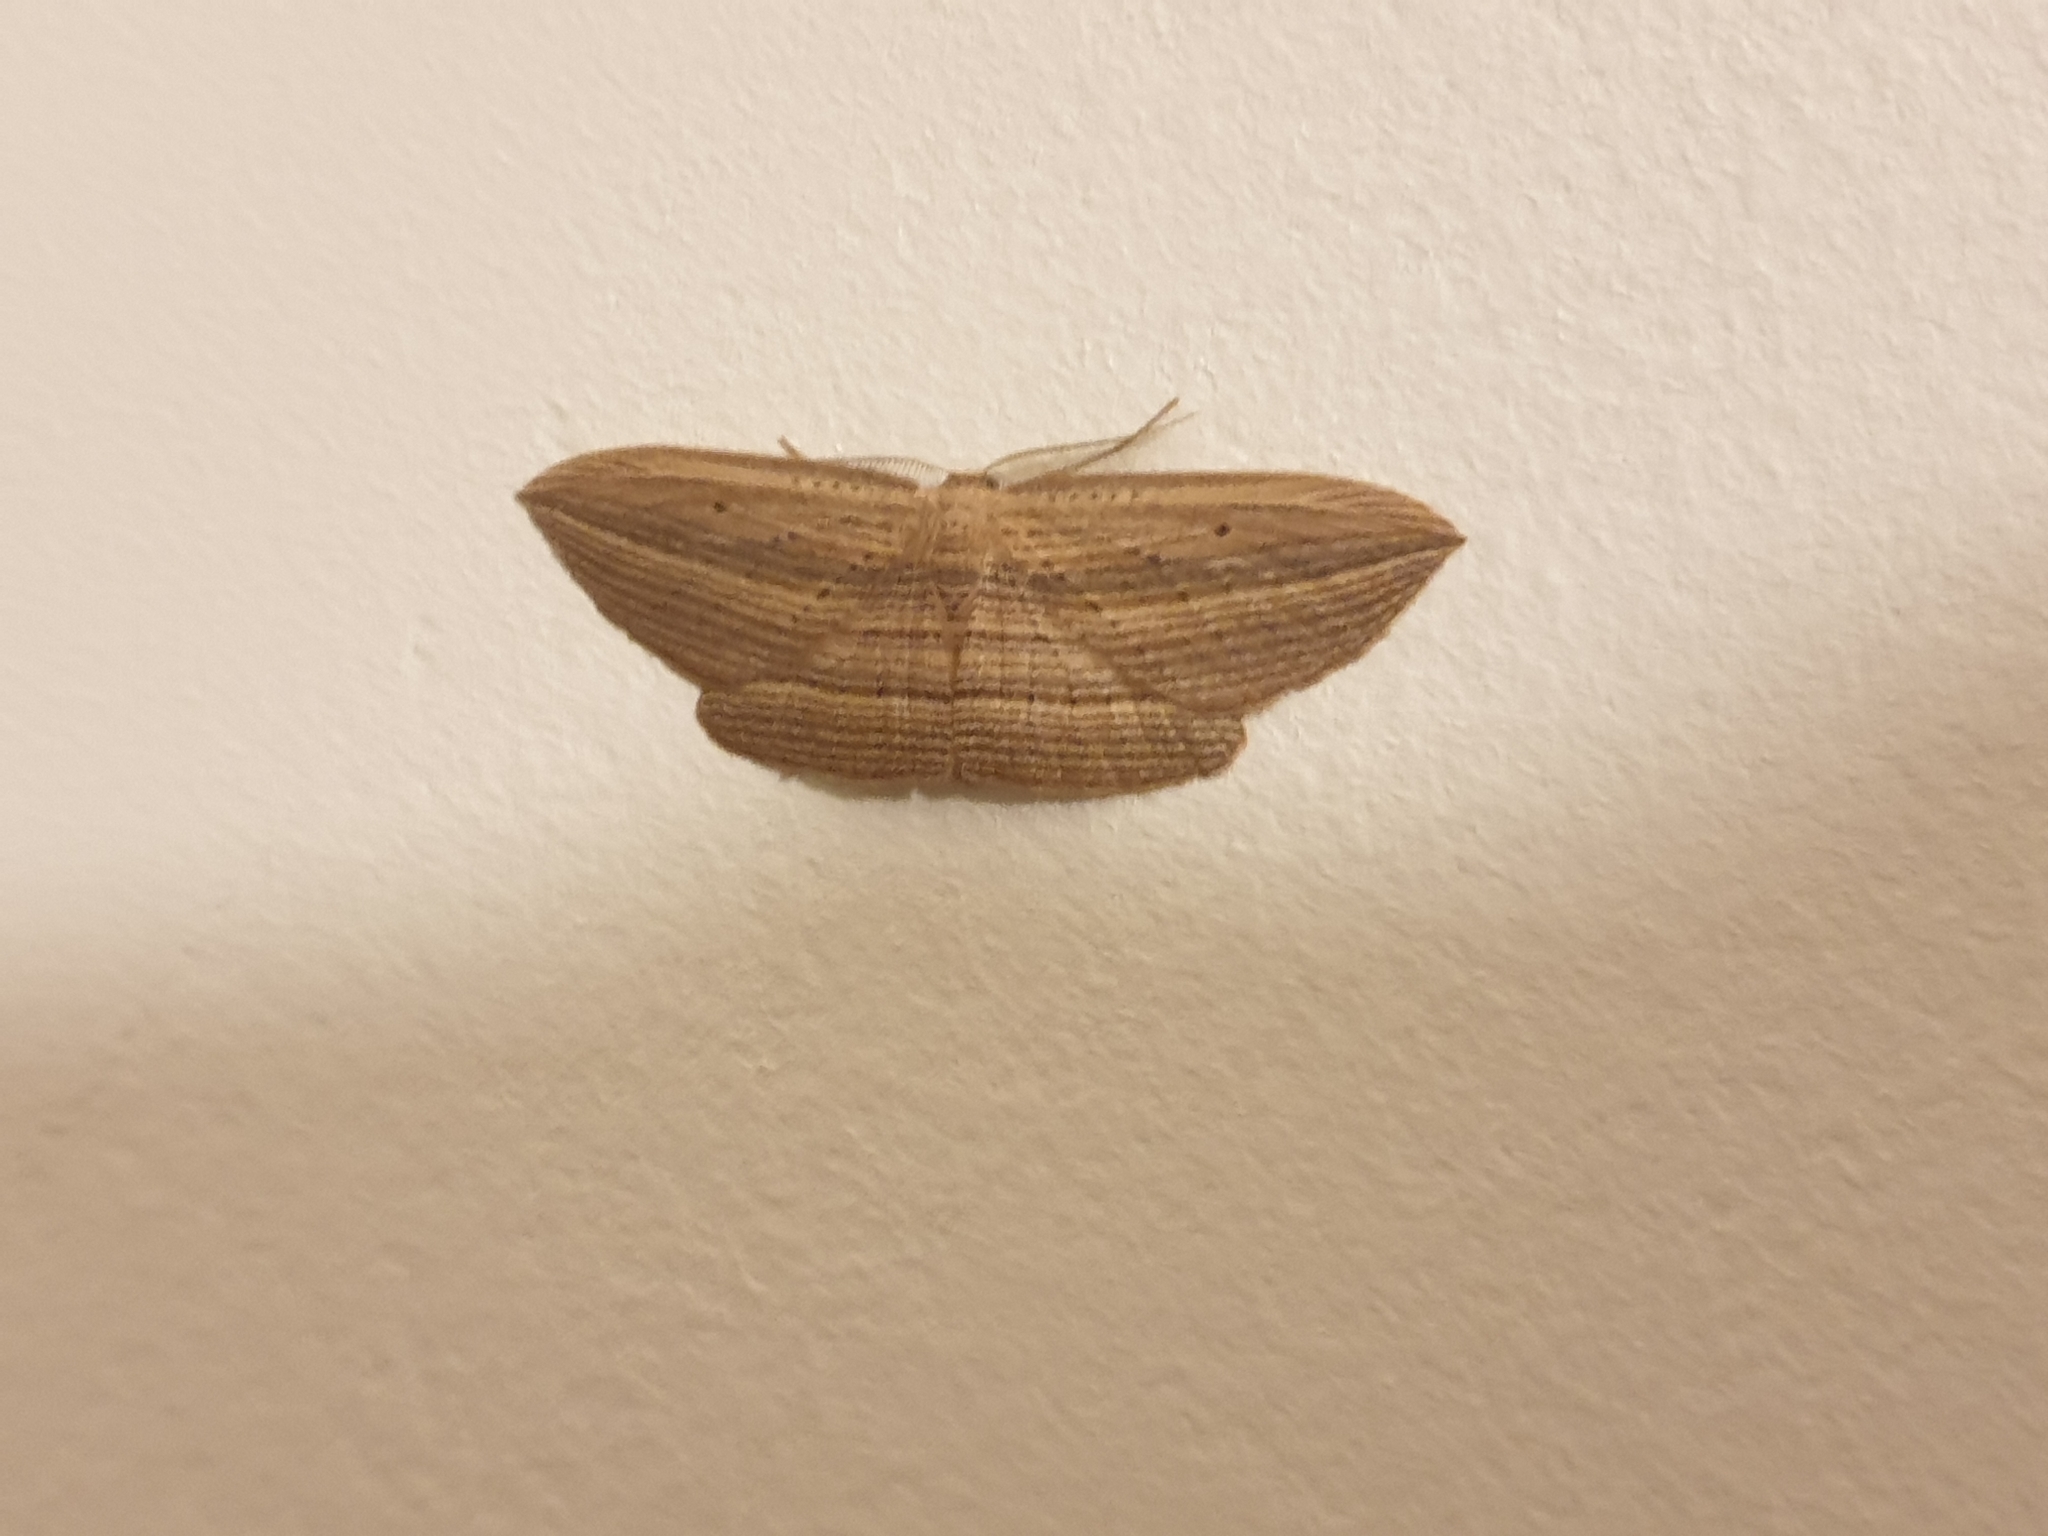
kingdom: Animalia
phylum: Arthropoda
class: Insecta
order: Lepidoptera
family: Geometridae
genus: Epiphryne
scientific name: Epiphryne verriculata
